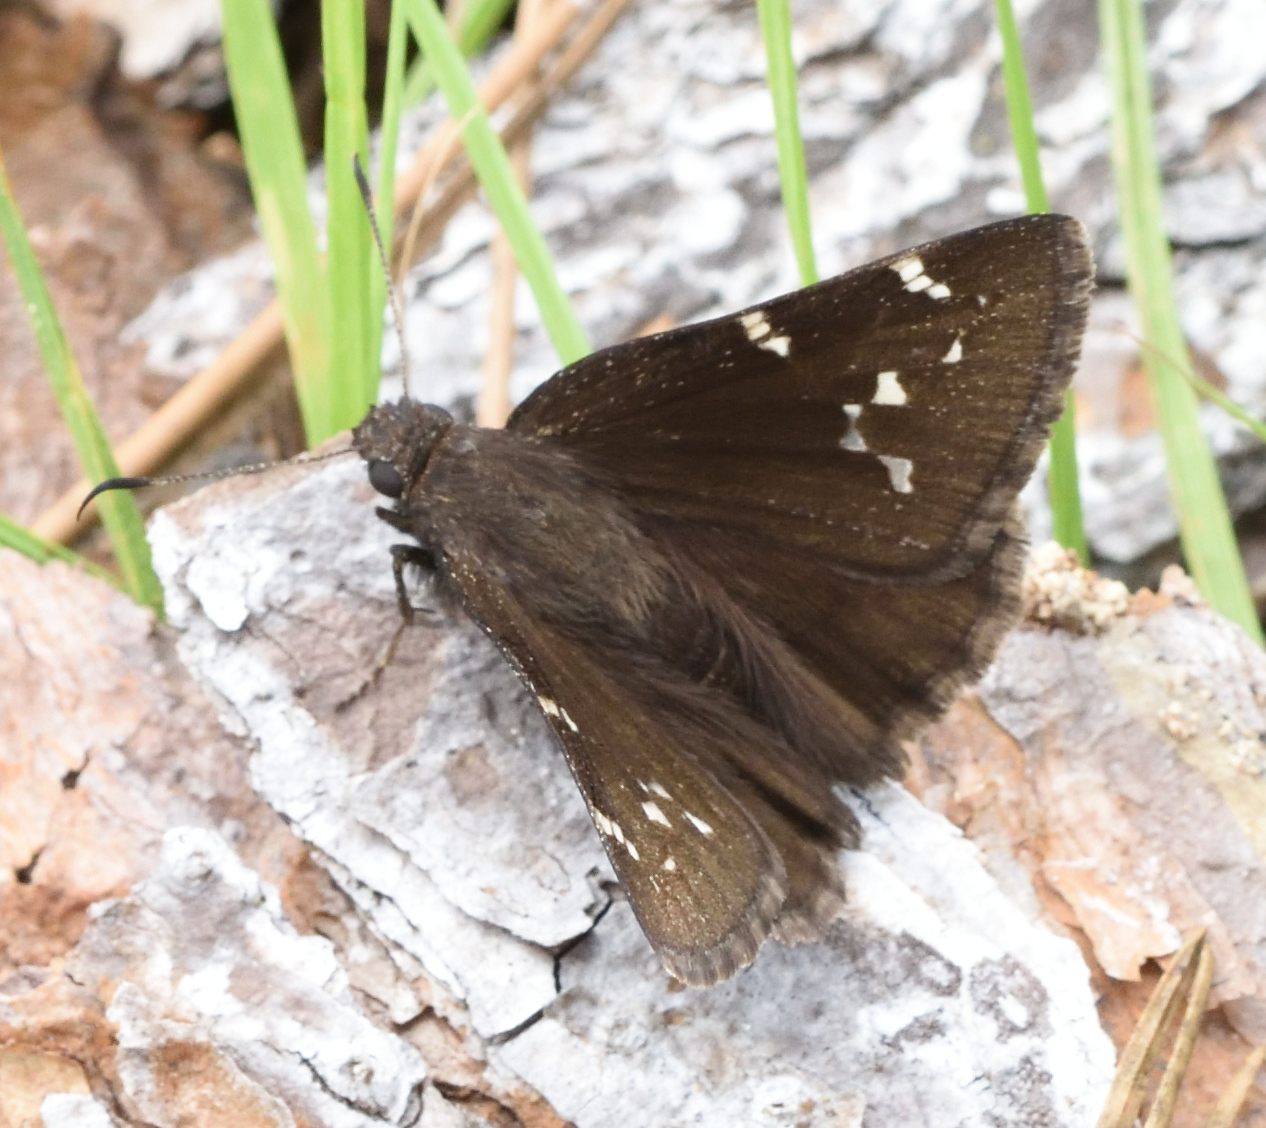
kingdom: Animalia
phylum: Arthropoda
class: Insecta
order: Lepidoptera
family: Hesperiidae
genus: Thorybes
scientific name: Thorybes pylades
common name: Northern cloudywing
